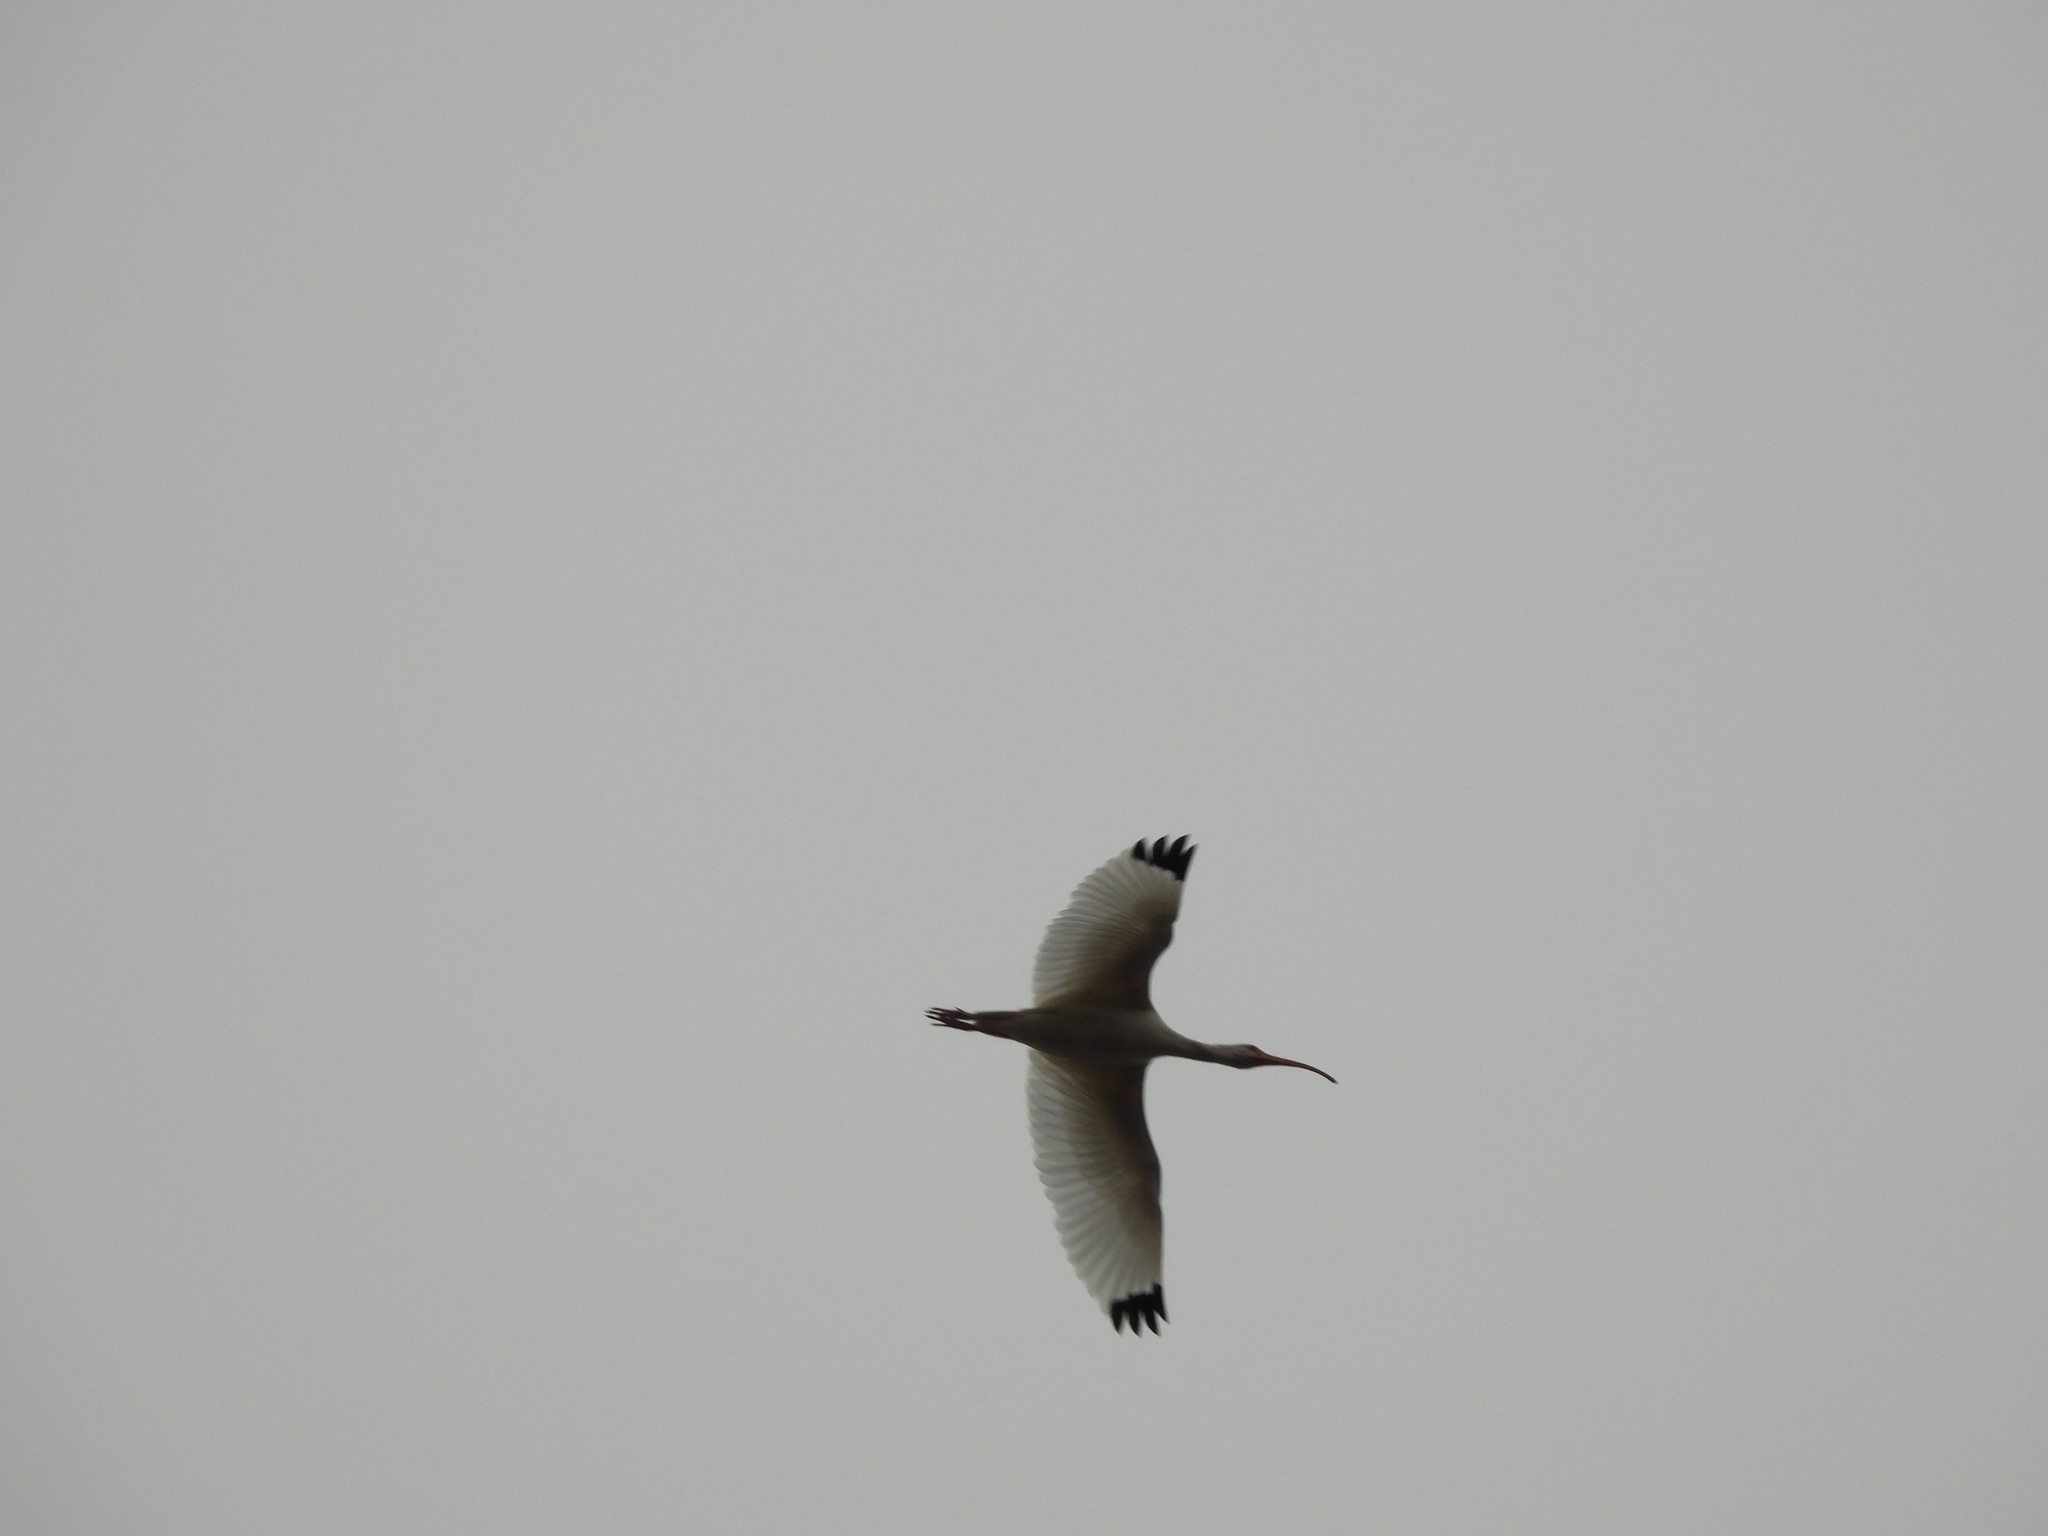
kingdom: Animalia
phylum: Chordata
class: Aves
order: Pelecaniformes
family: Threskiornithidae
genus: Eudocimus
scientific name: Eudocimus albus
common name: White ibis
